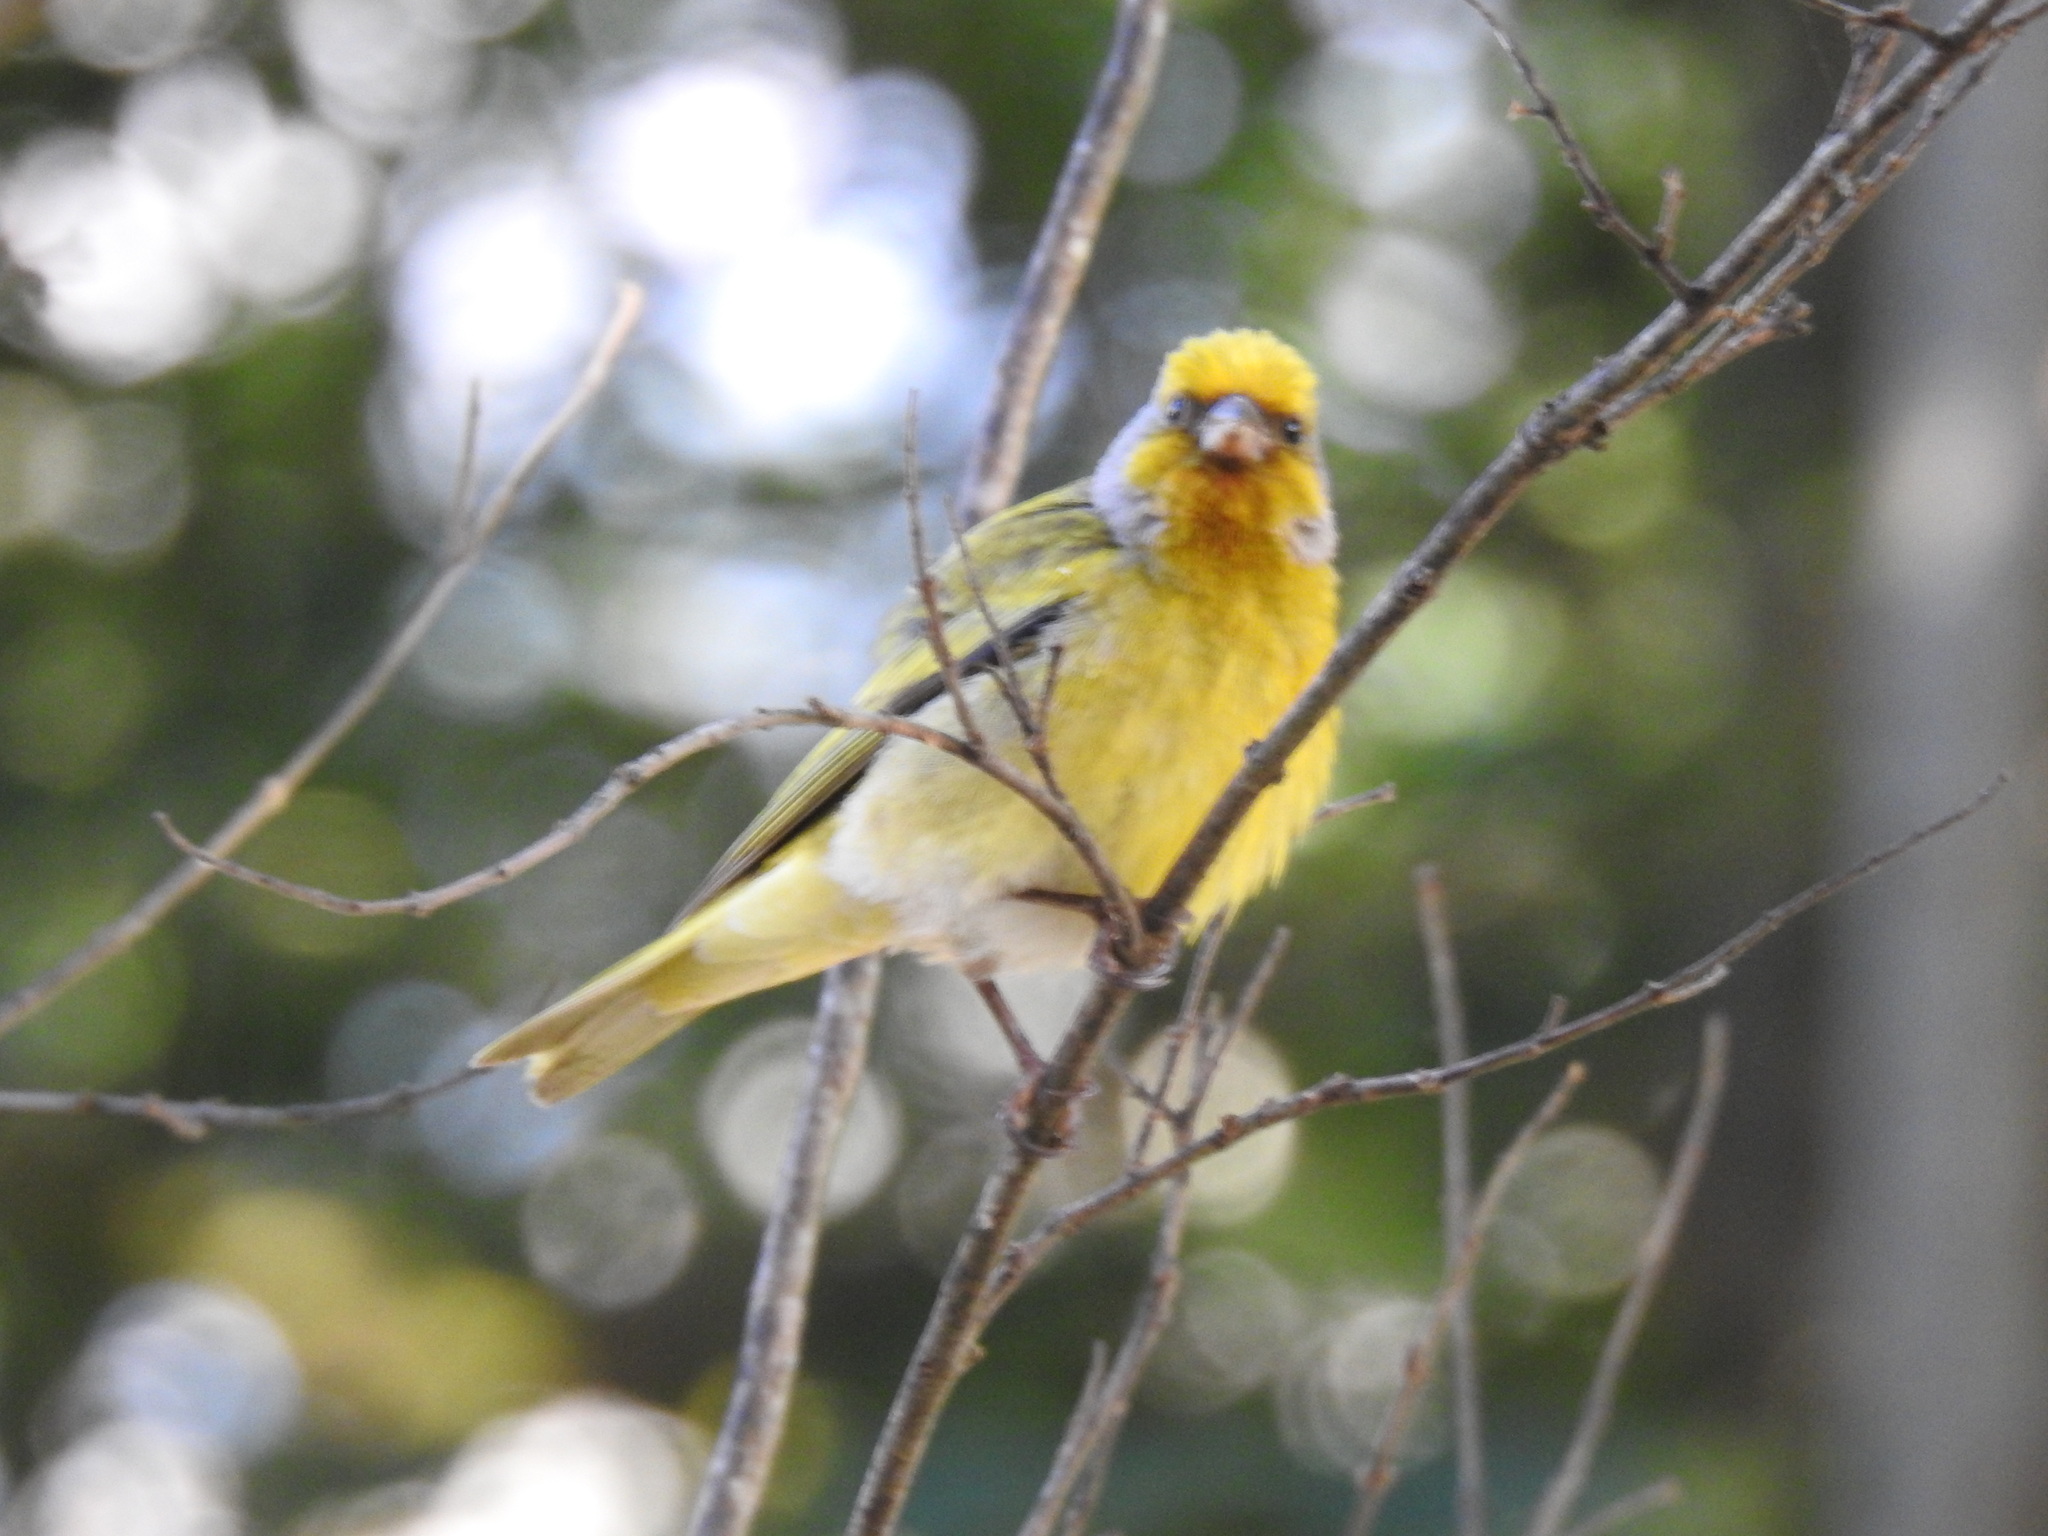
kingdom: Animalia
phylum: Chordata
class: Aves
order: Passeriformes
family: Fringillidae
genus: Serinus
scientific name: Serinus canicollis
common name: Cape canary
